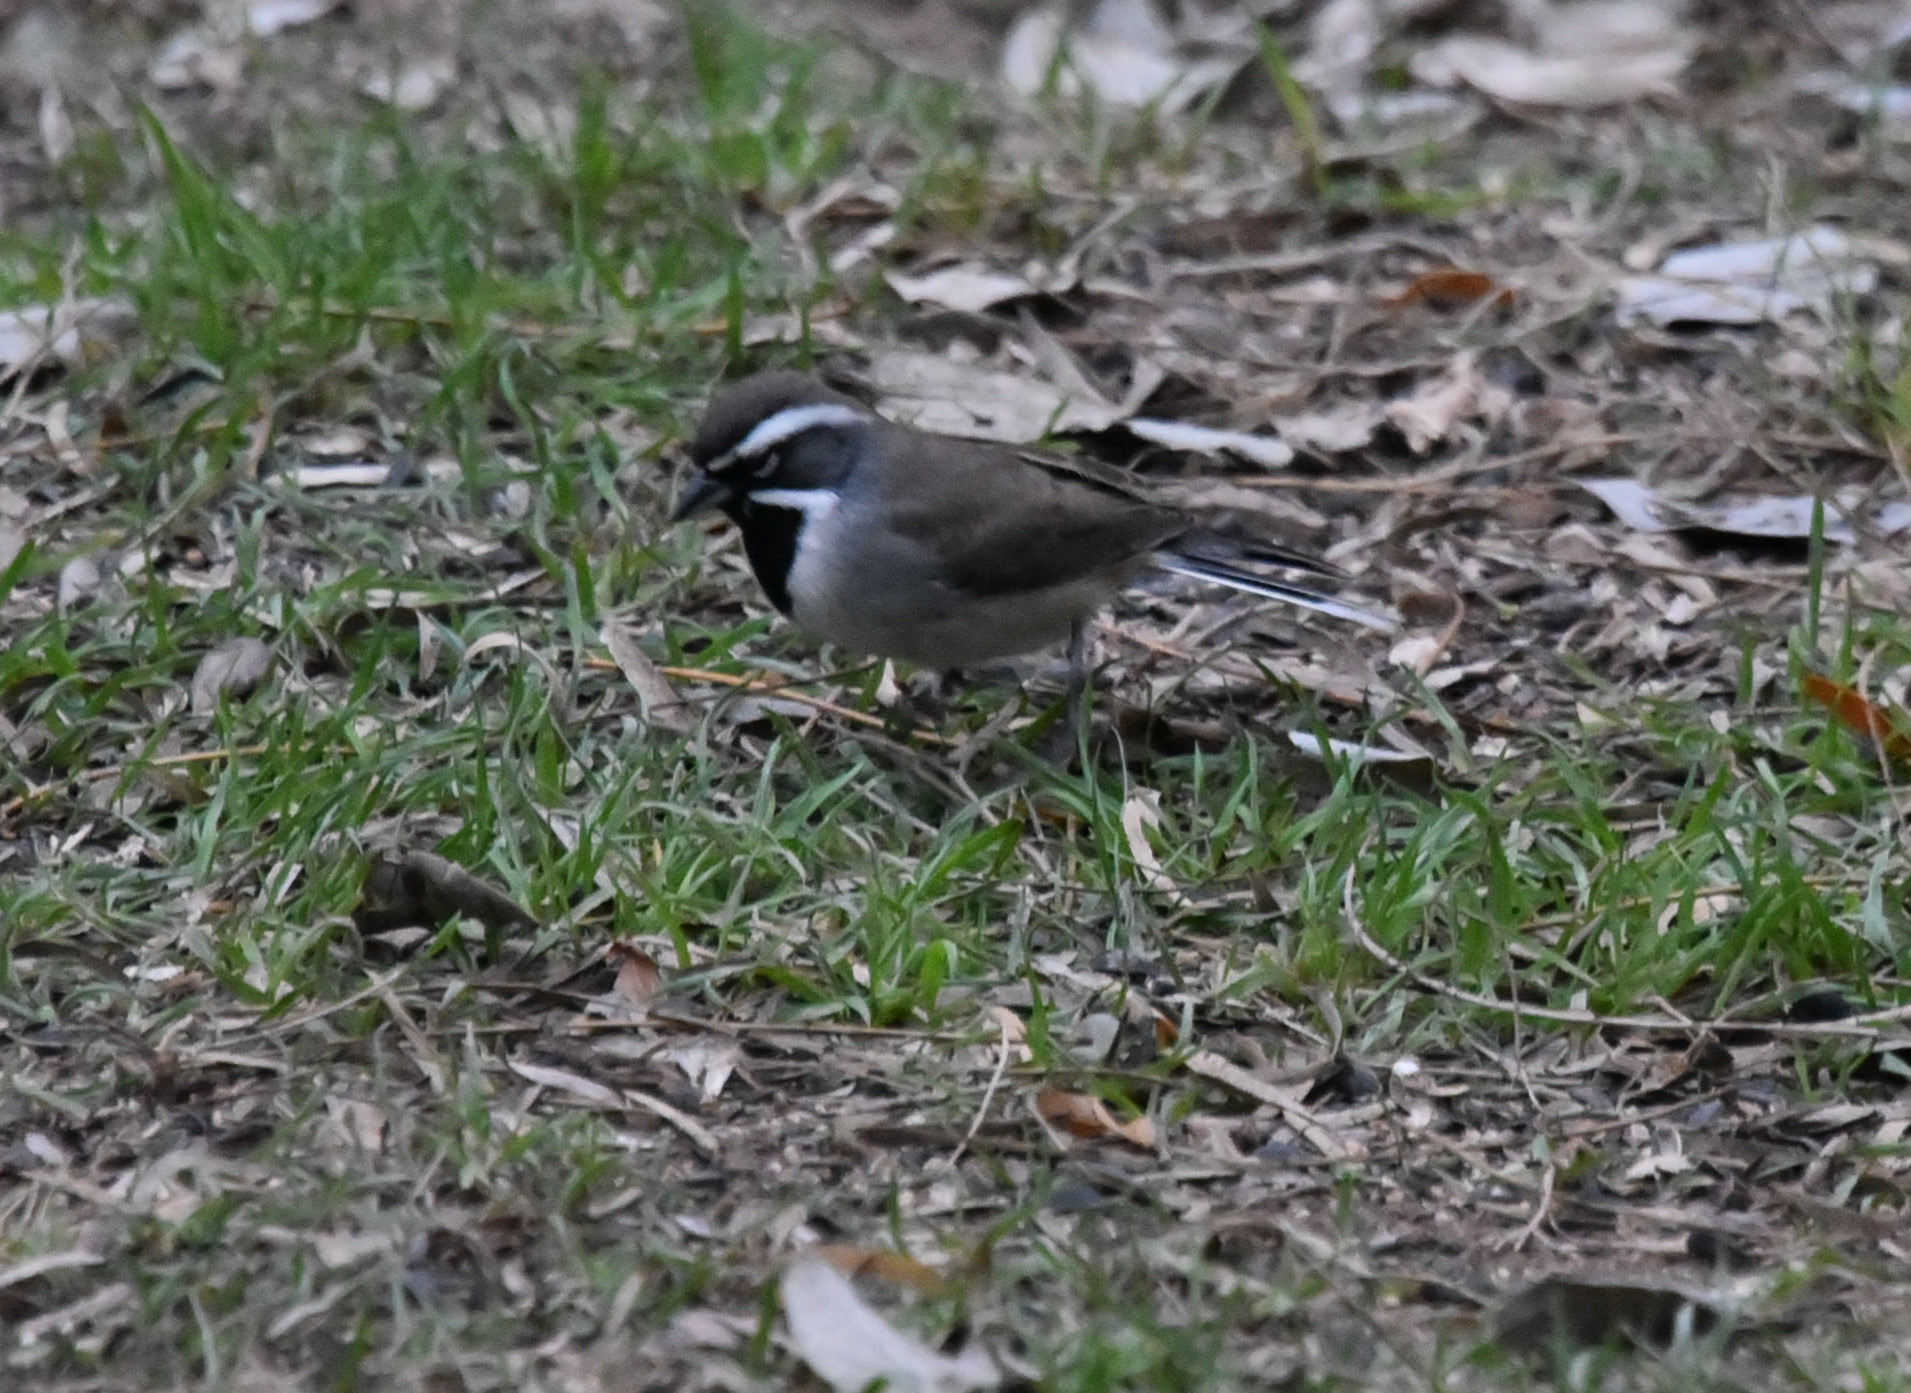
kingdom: Animalia
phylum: Chordata
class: Aves
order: Passeriformes
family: Passerellidae
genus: Amphispiza
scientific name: Amphispiza bilineata
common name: Black-throated sparrow
